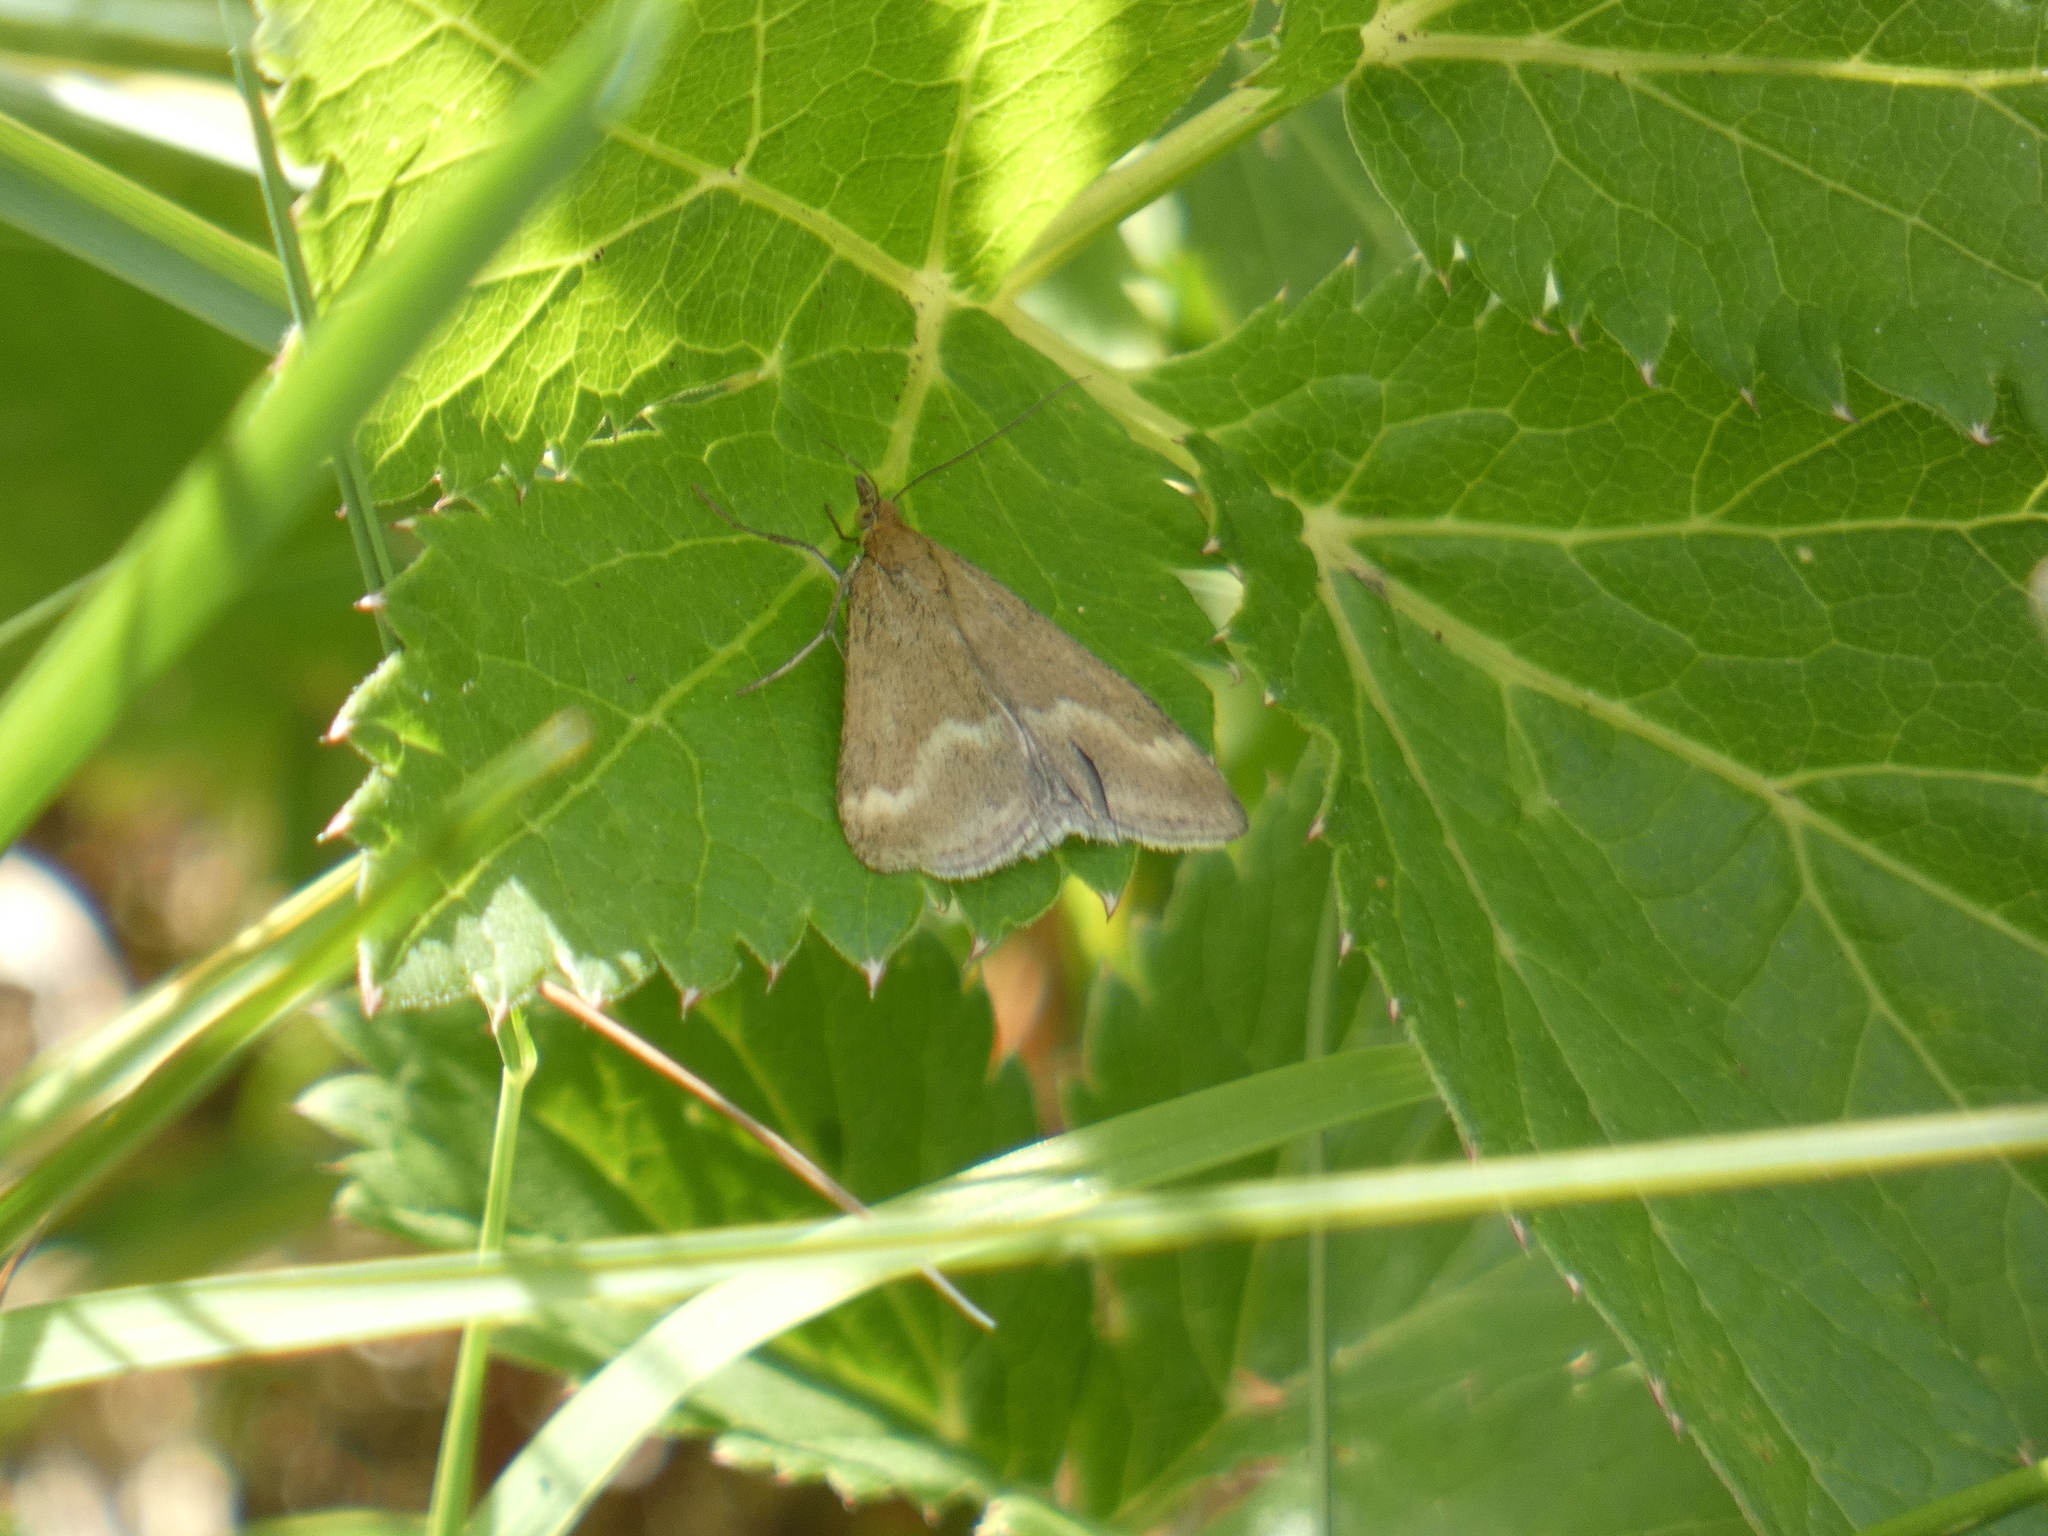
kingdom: Animalia
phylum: Arthropoda
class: Insecta
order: Lepidoptera
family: Crambidae
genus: Pyrausta
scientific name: Pyrausta aerealis
